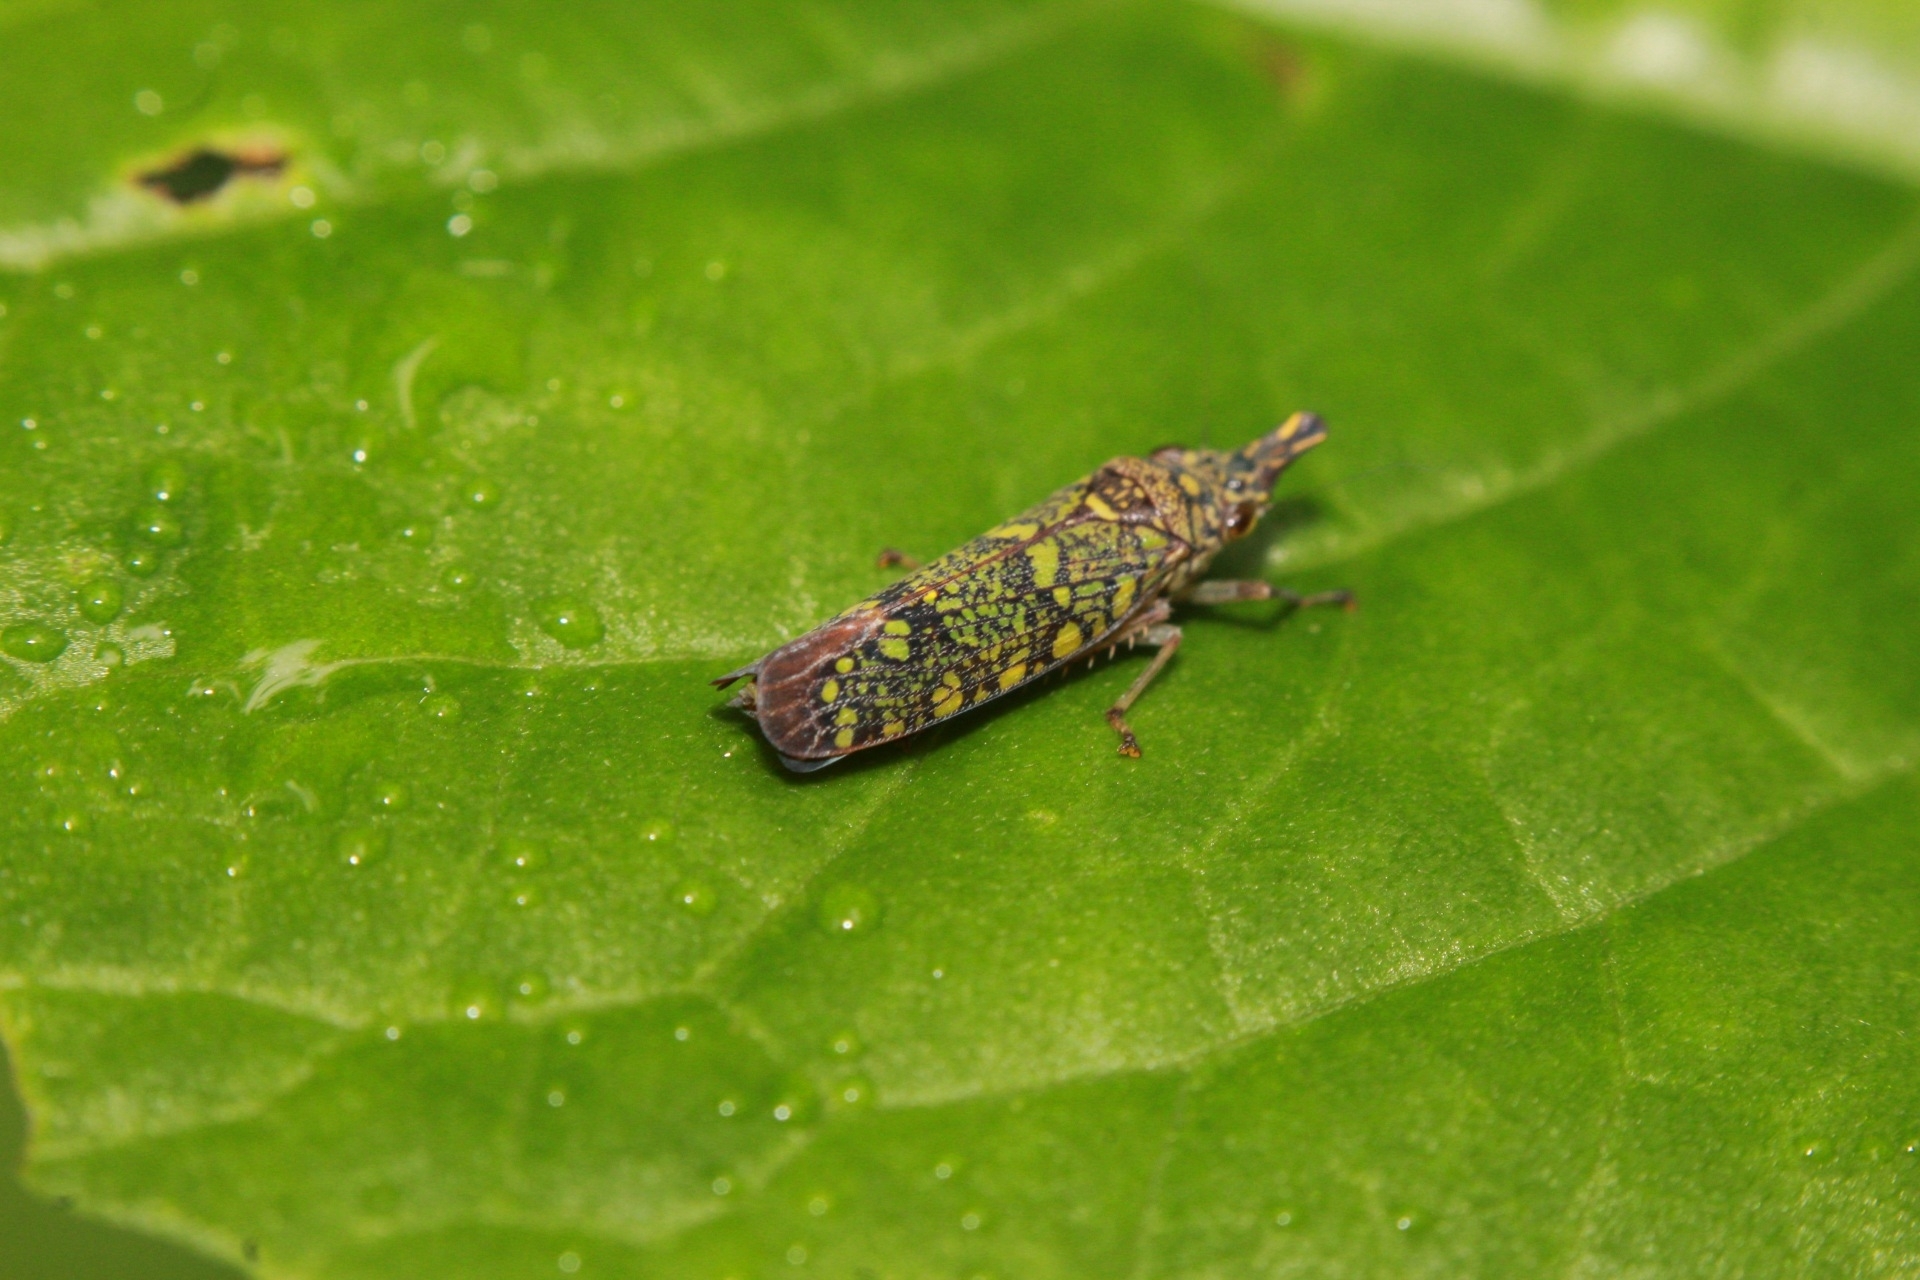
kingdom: Animalia
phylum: Arthropoda
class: Insecta
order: Hemiptera
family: Cicadellidae
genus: Ichthyobelus
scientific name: Ichthyobelus bellicosus
